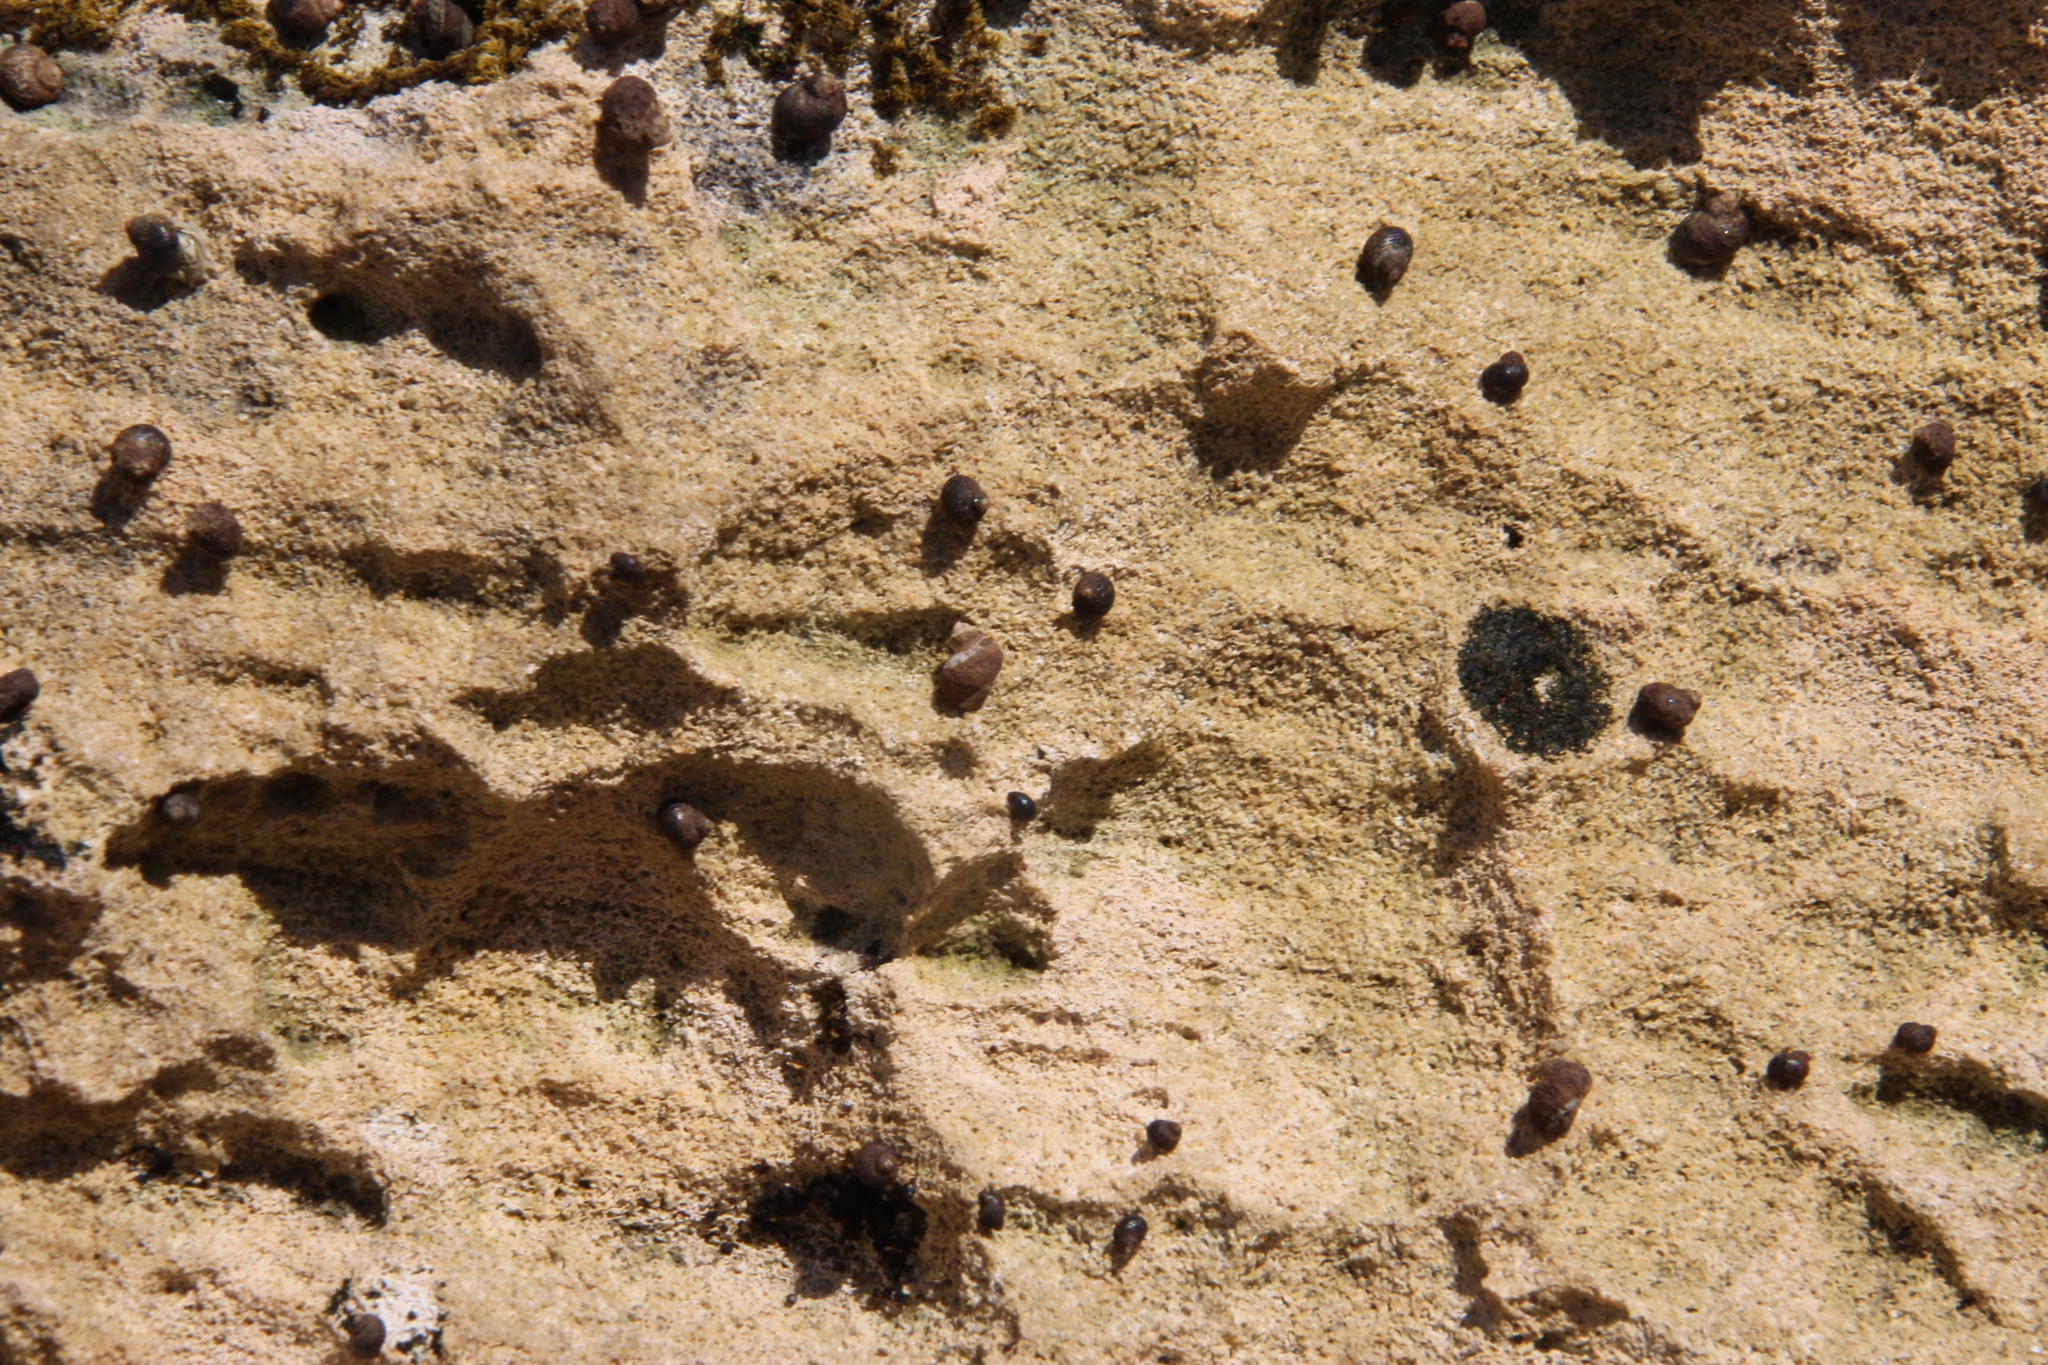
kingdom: Animalia
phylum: Mollusca
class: Gastropoda
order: Littorinimorpha
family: Littorinidae
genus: Afrolittorina
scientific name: Afrolittorina knysnaensis
